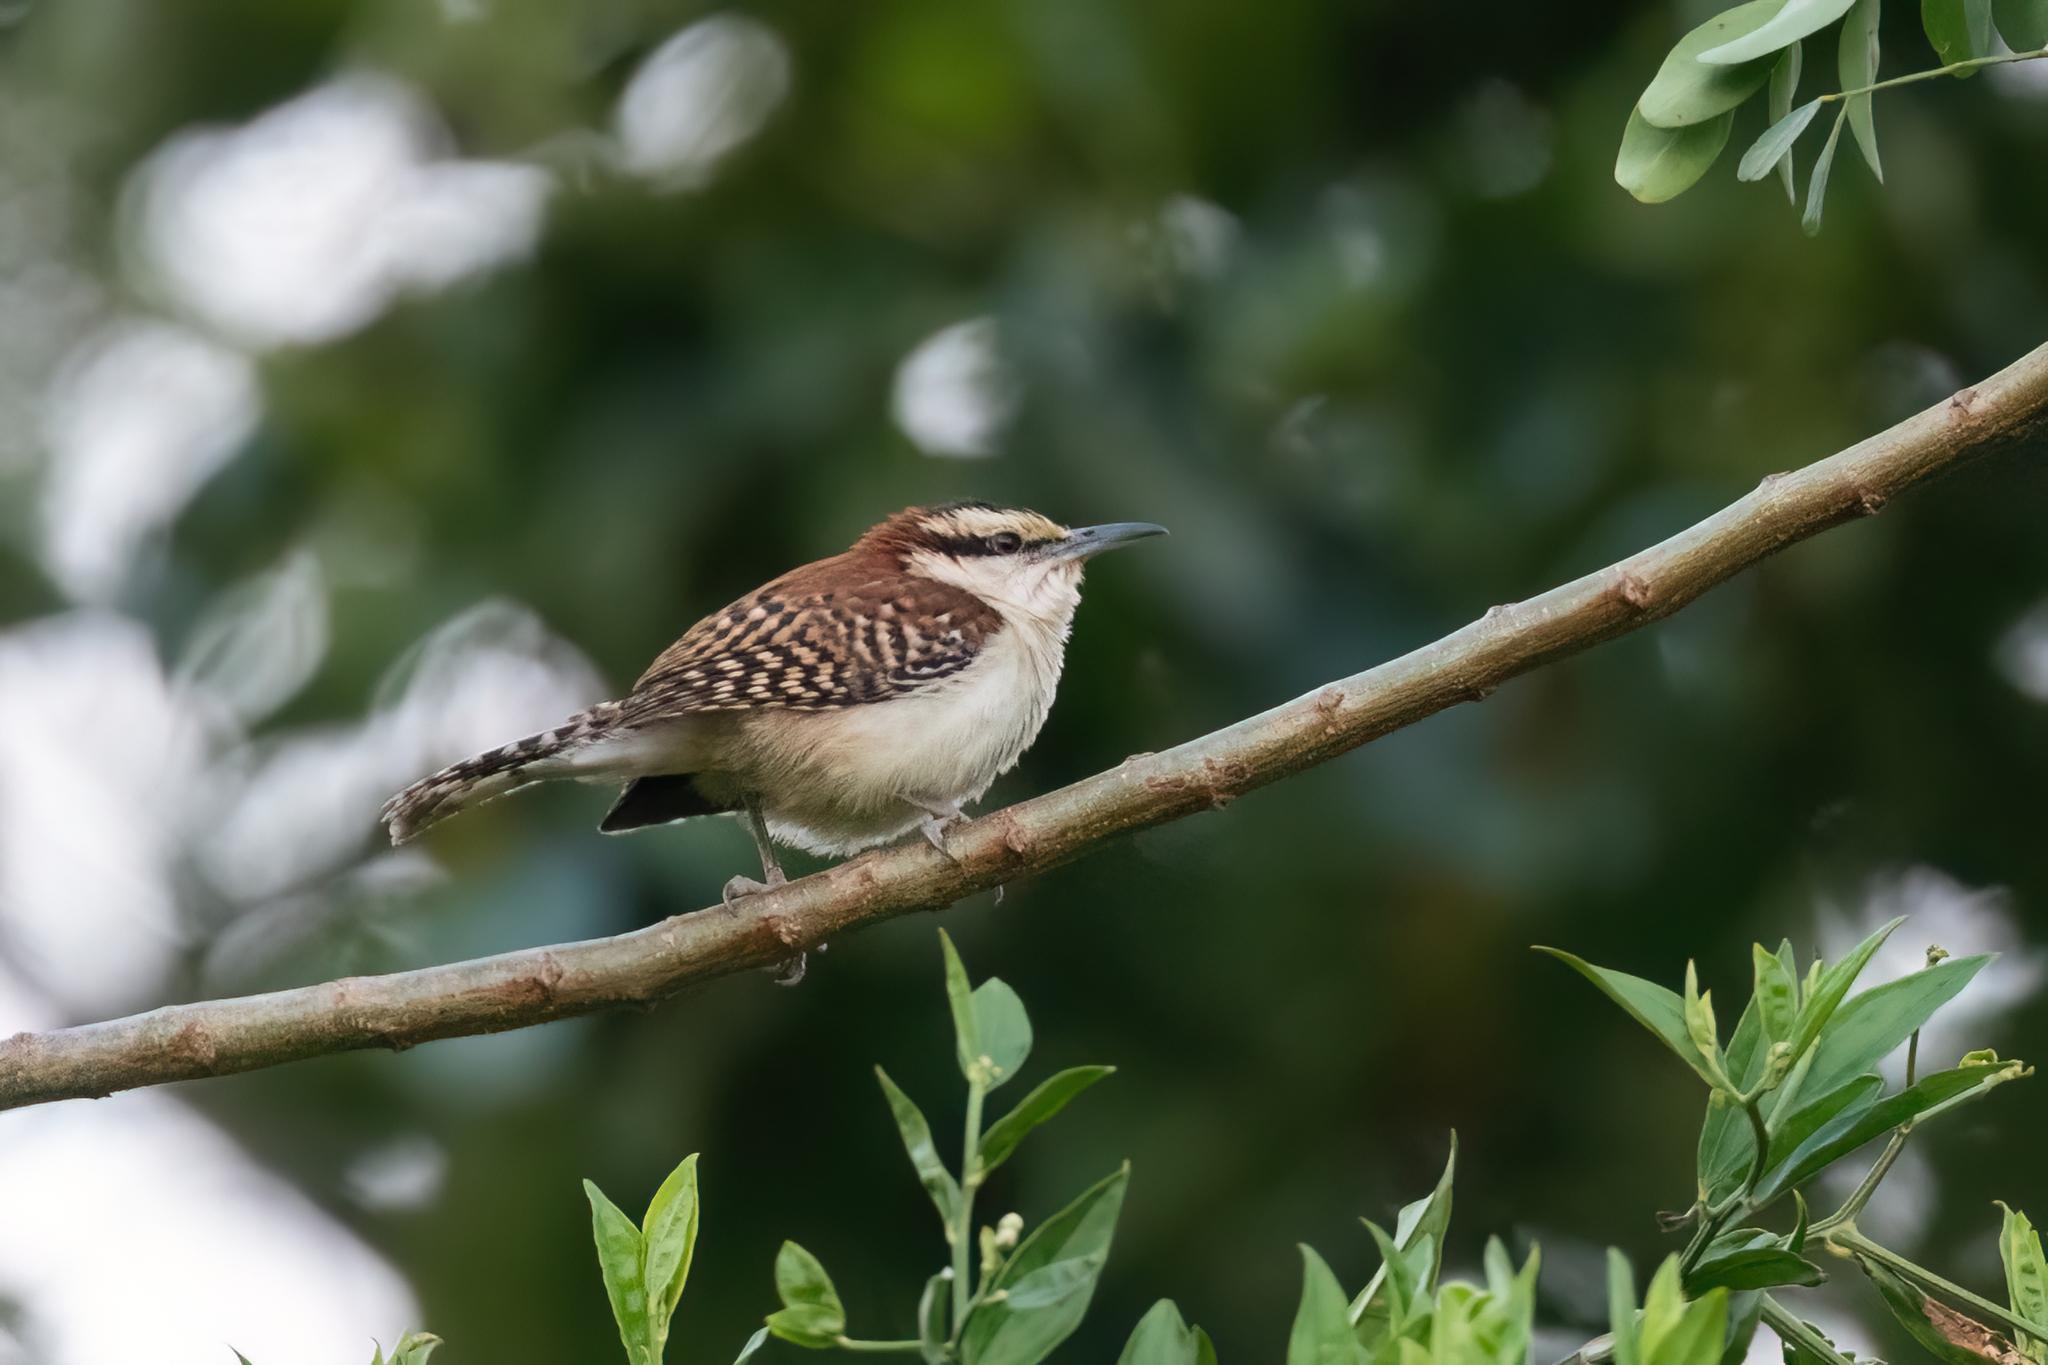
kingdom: Animalia
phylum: Chordata
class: Aves
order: Passeriformes
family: Troglodytidae
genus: Campylorhynchus
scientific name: Campylorhynchus rufinucha
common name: Rufous-naped wren
